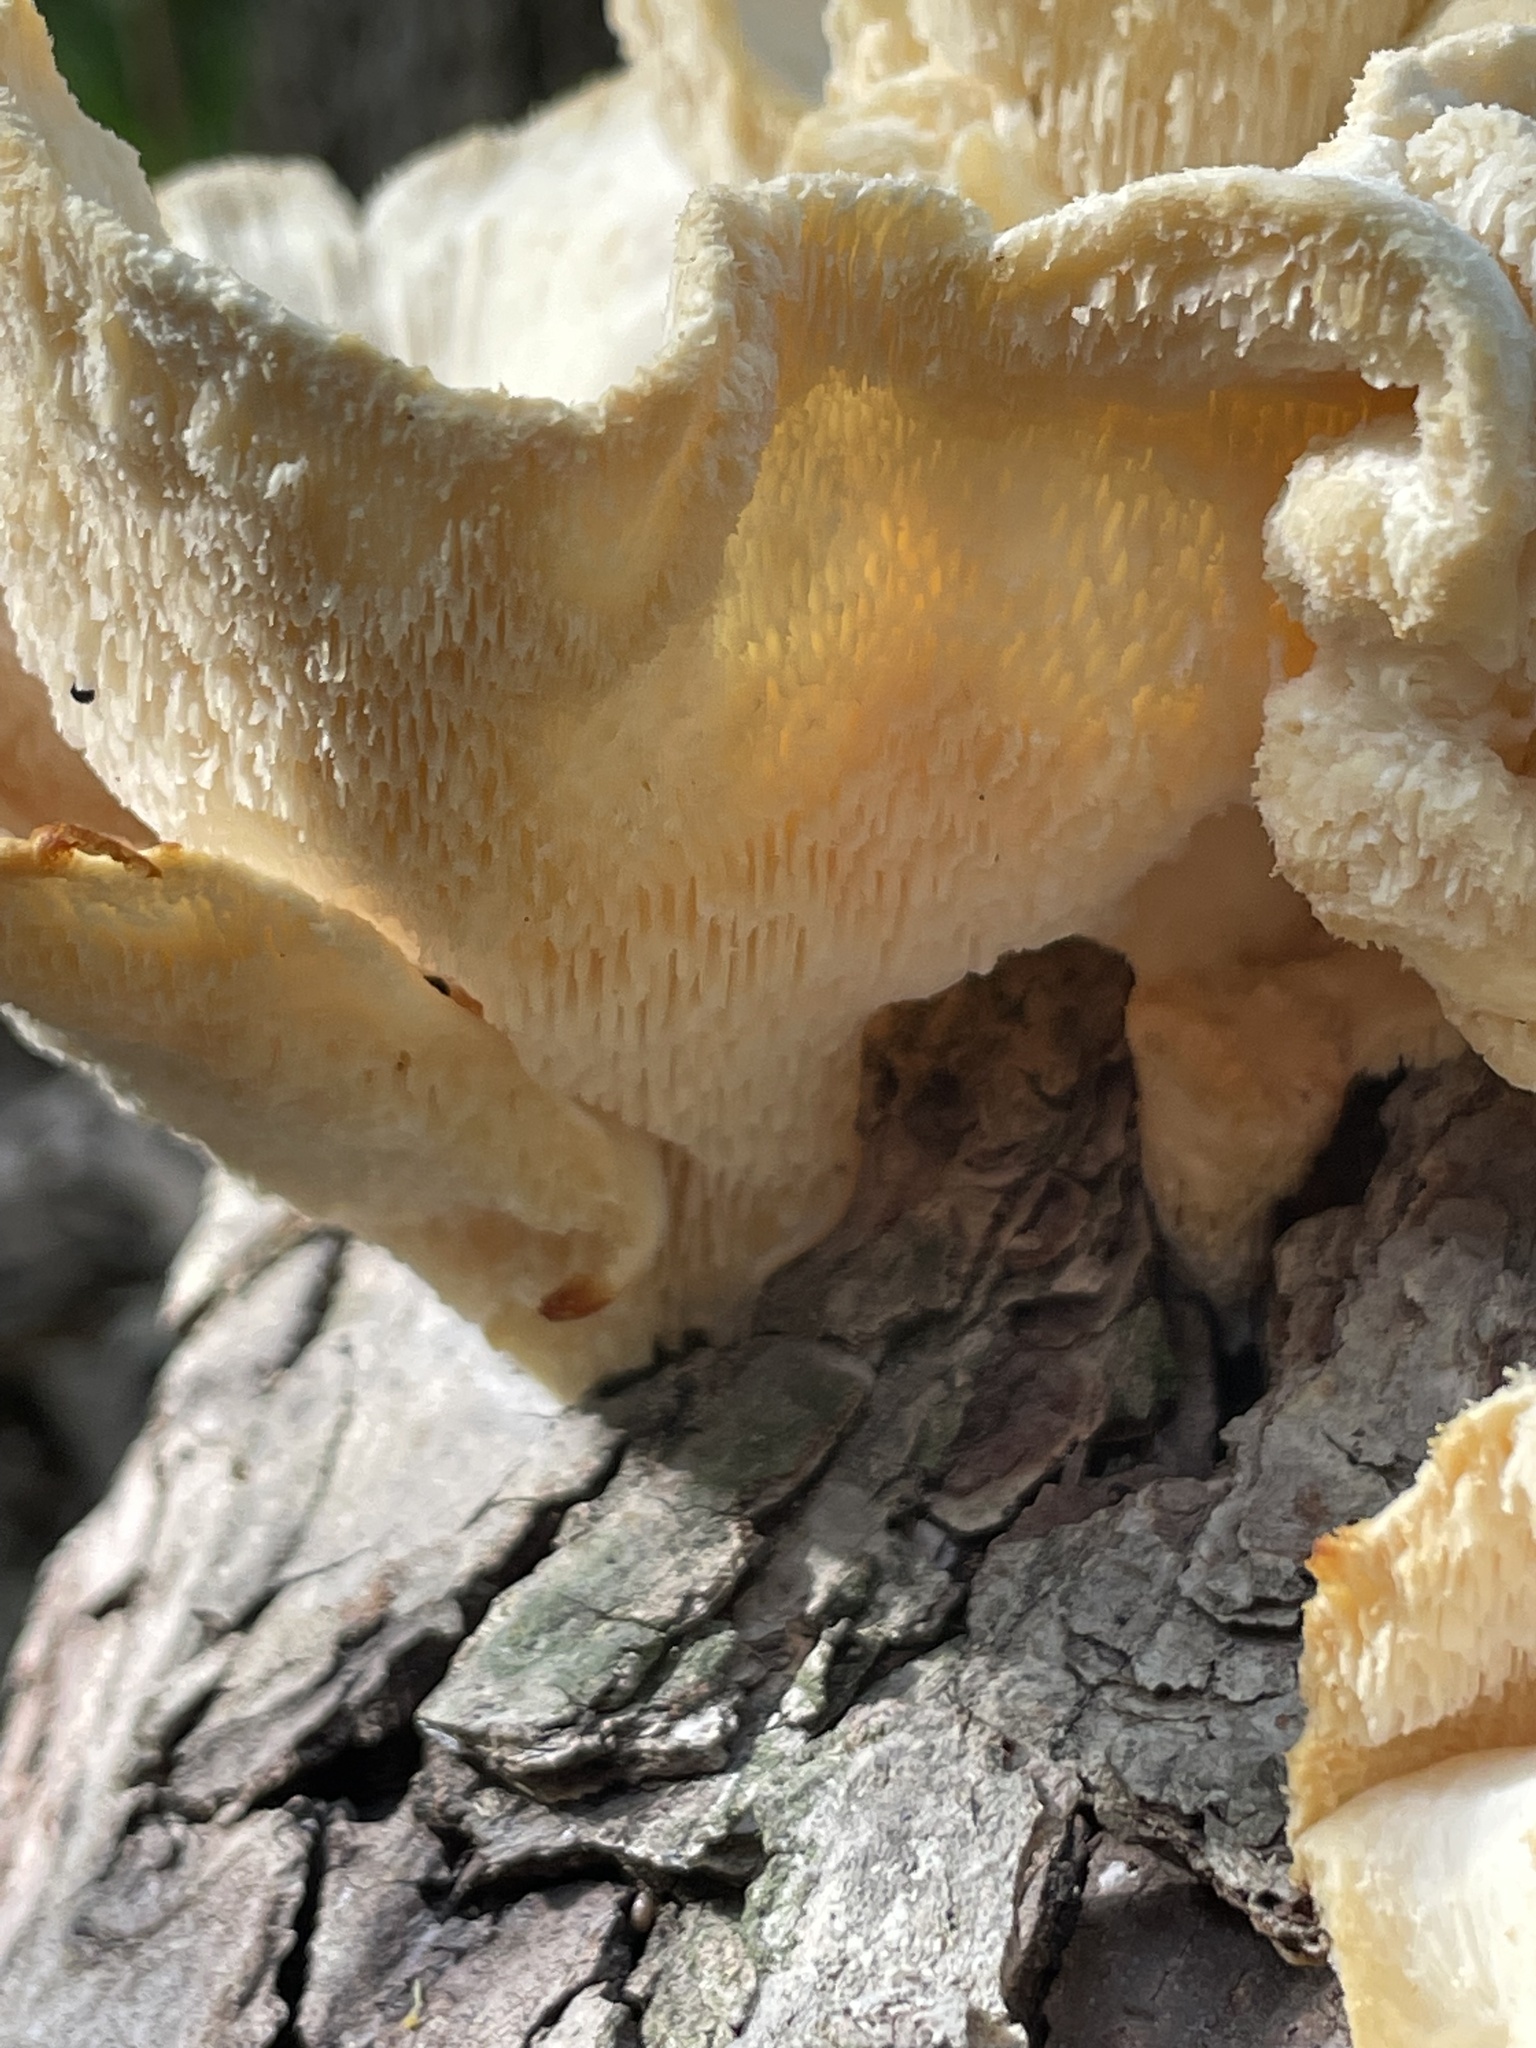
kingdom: Fungi
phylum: Basidiomycota
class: Agaricomycetes
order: Polyporales
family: Polyporaceae
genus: Favolus
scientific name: Favolus tenuiculus
